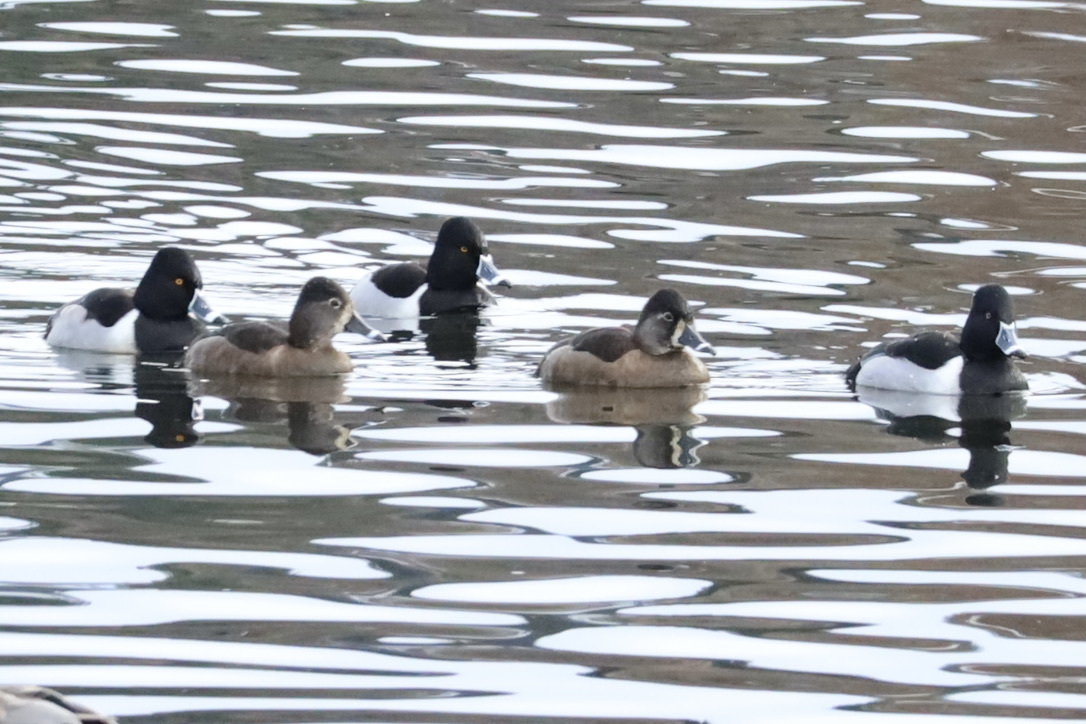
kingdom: Animalia
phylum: Chordata
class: Aves
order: Anseriformes
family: Anatidae
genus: Aythya
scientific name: Aythya collaris
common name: Ring-necked duck
